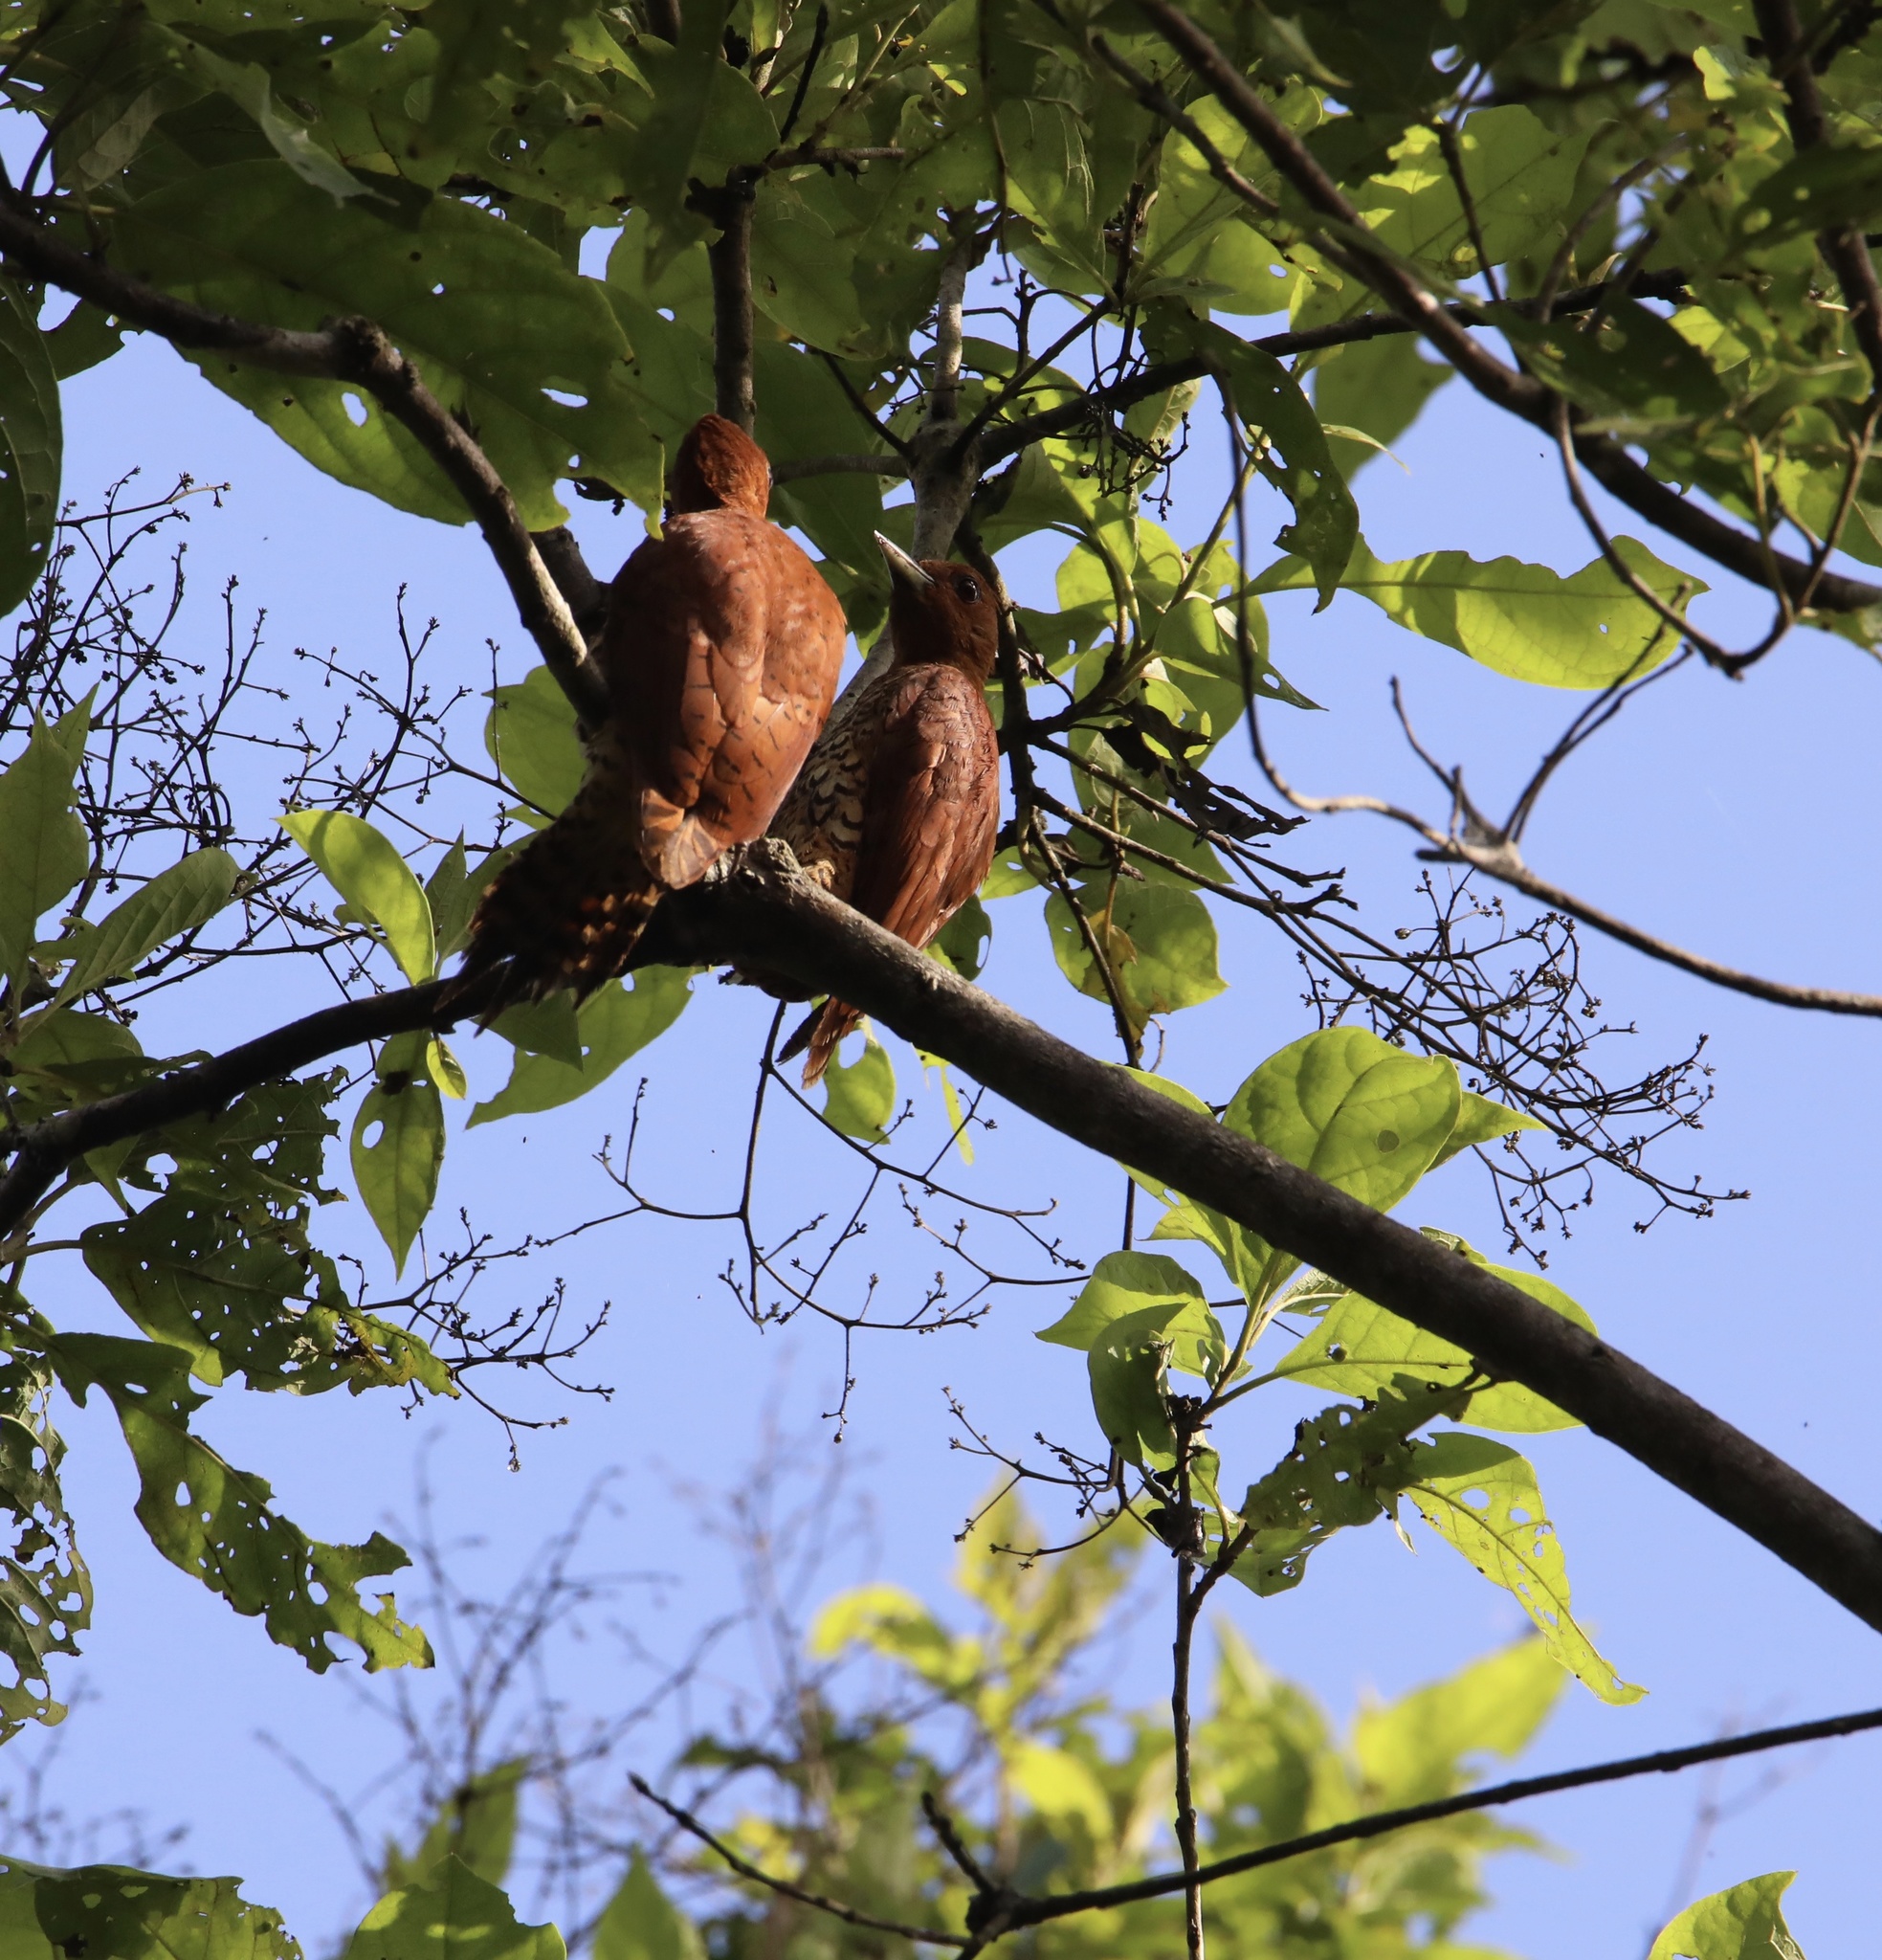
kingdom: Animalia
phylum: Chordata
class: Aves
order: Piciformes
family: Picidae
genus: Celeus
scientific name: Celeus loricatus
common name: Cinnamon woodpecker
